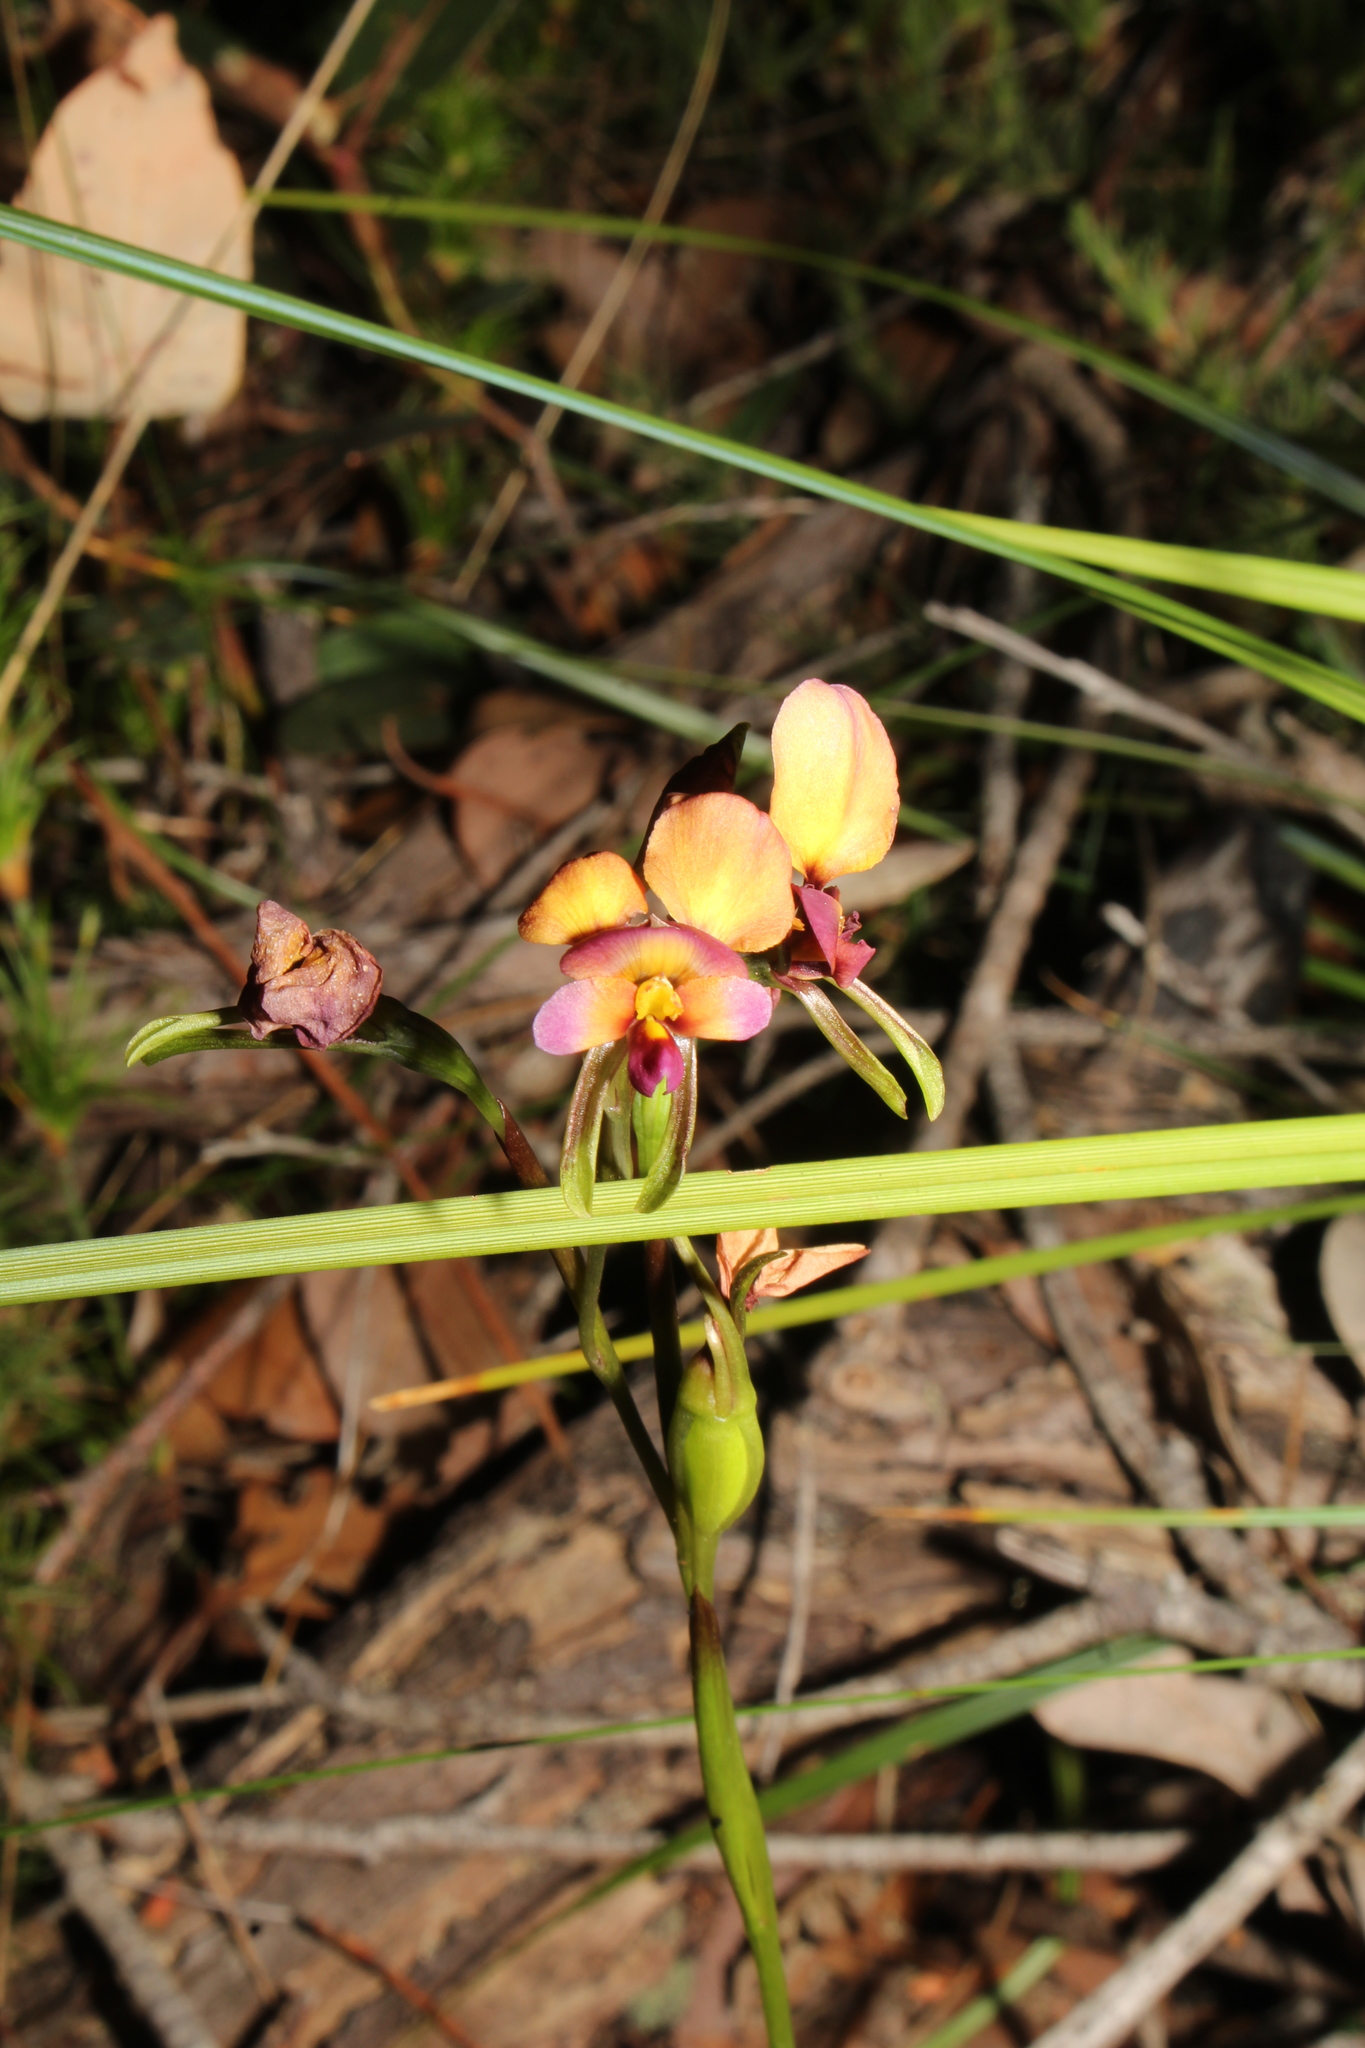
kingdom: Plantae
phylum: Tracheophyta
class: Liliopsida
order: Asparagales
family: Orchidaceae
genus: Diuris
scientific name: Diuris longifolia
